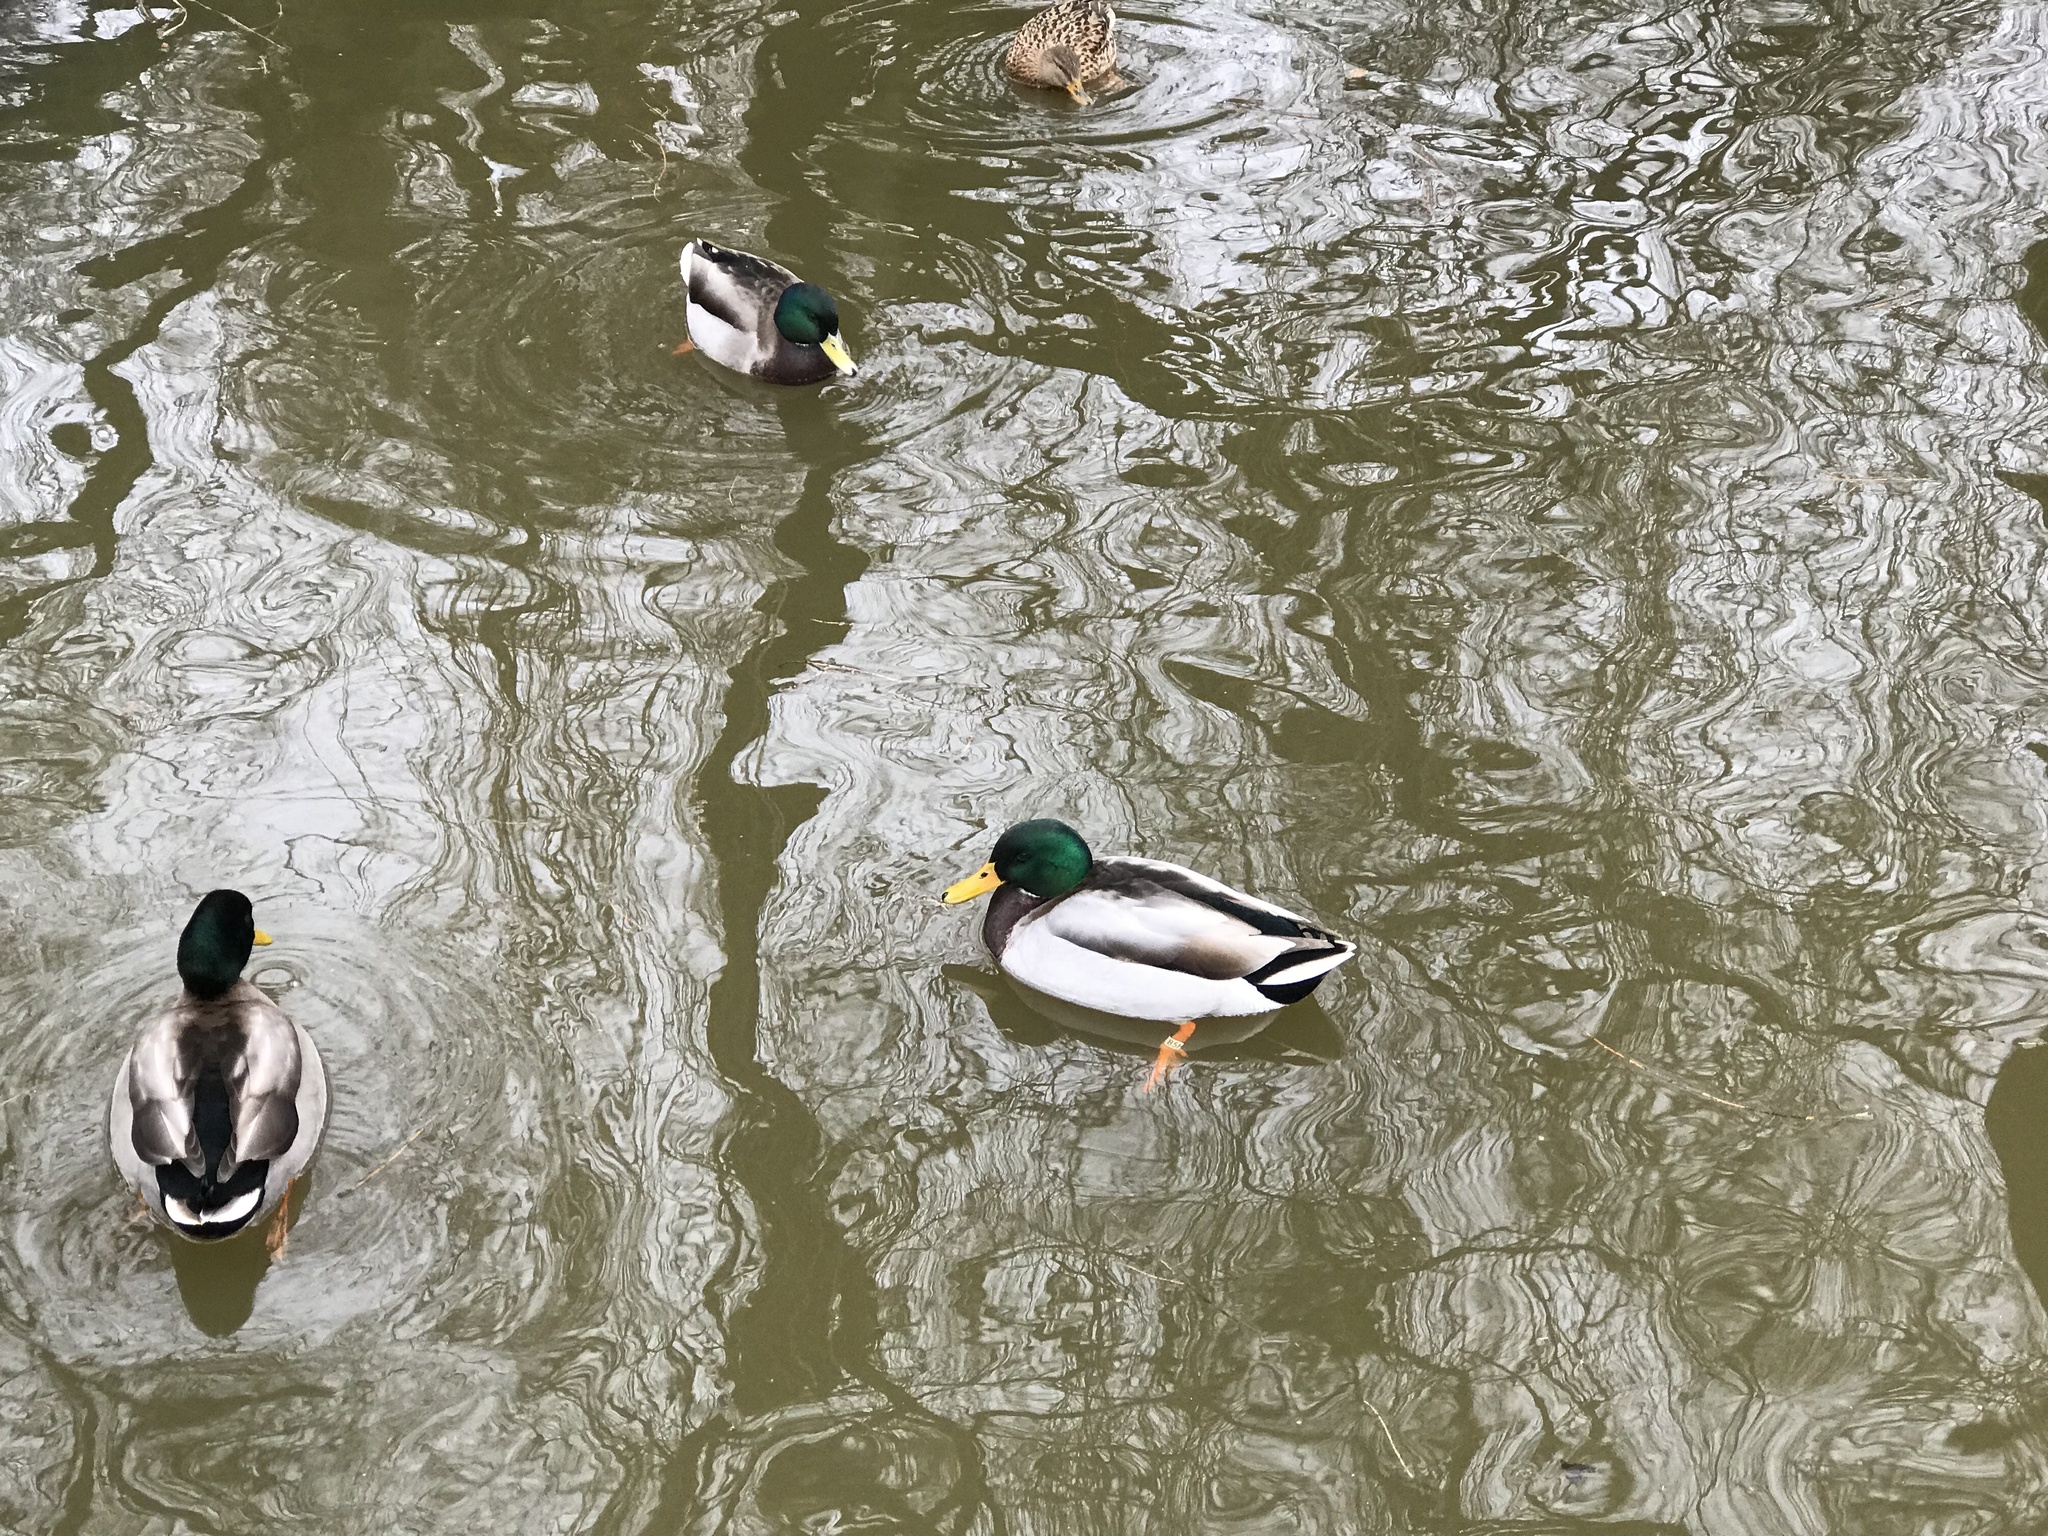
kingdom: Animalia
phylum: Chordata
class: Aves
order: Anseriformes
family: Anatidae
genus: Anas
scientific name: Anas platyrhynchos
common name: Mallard
